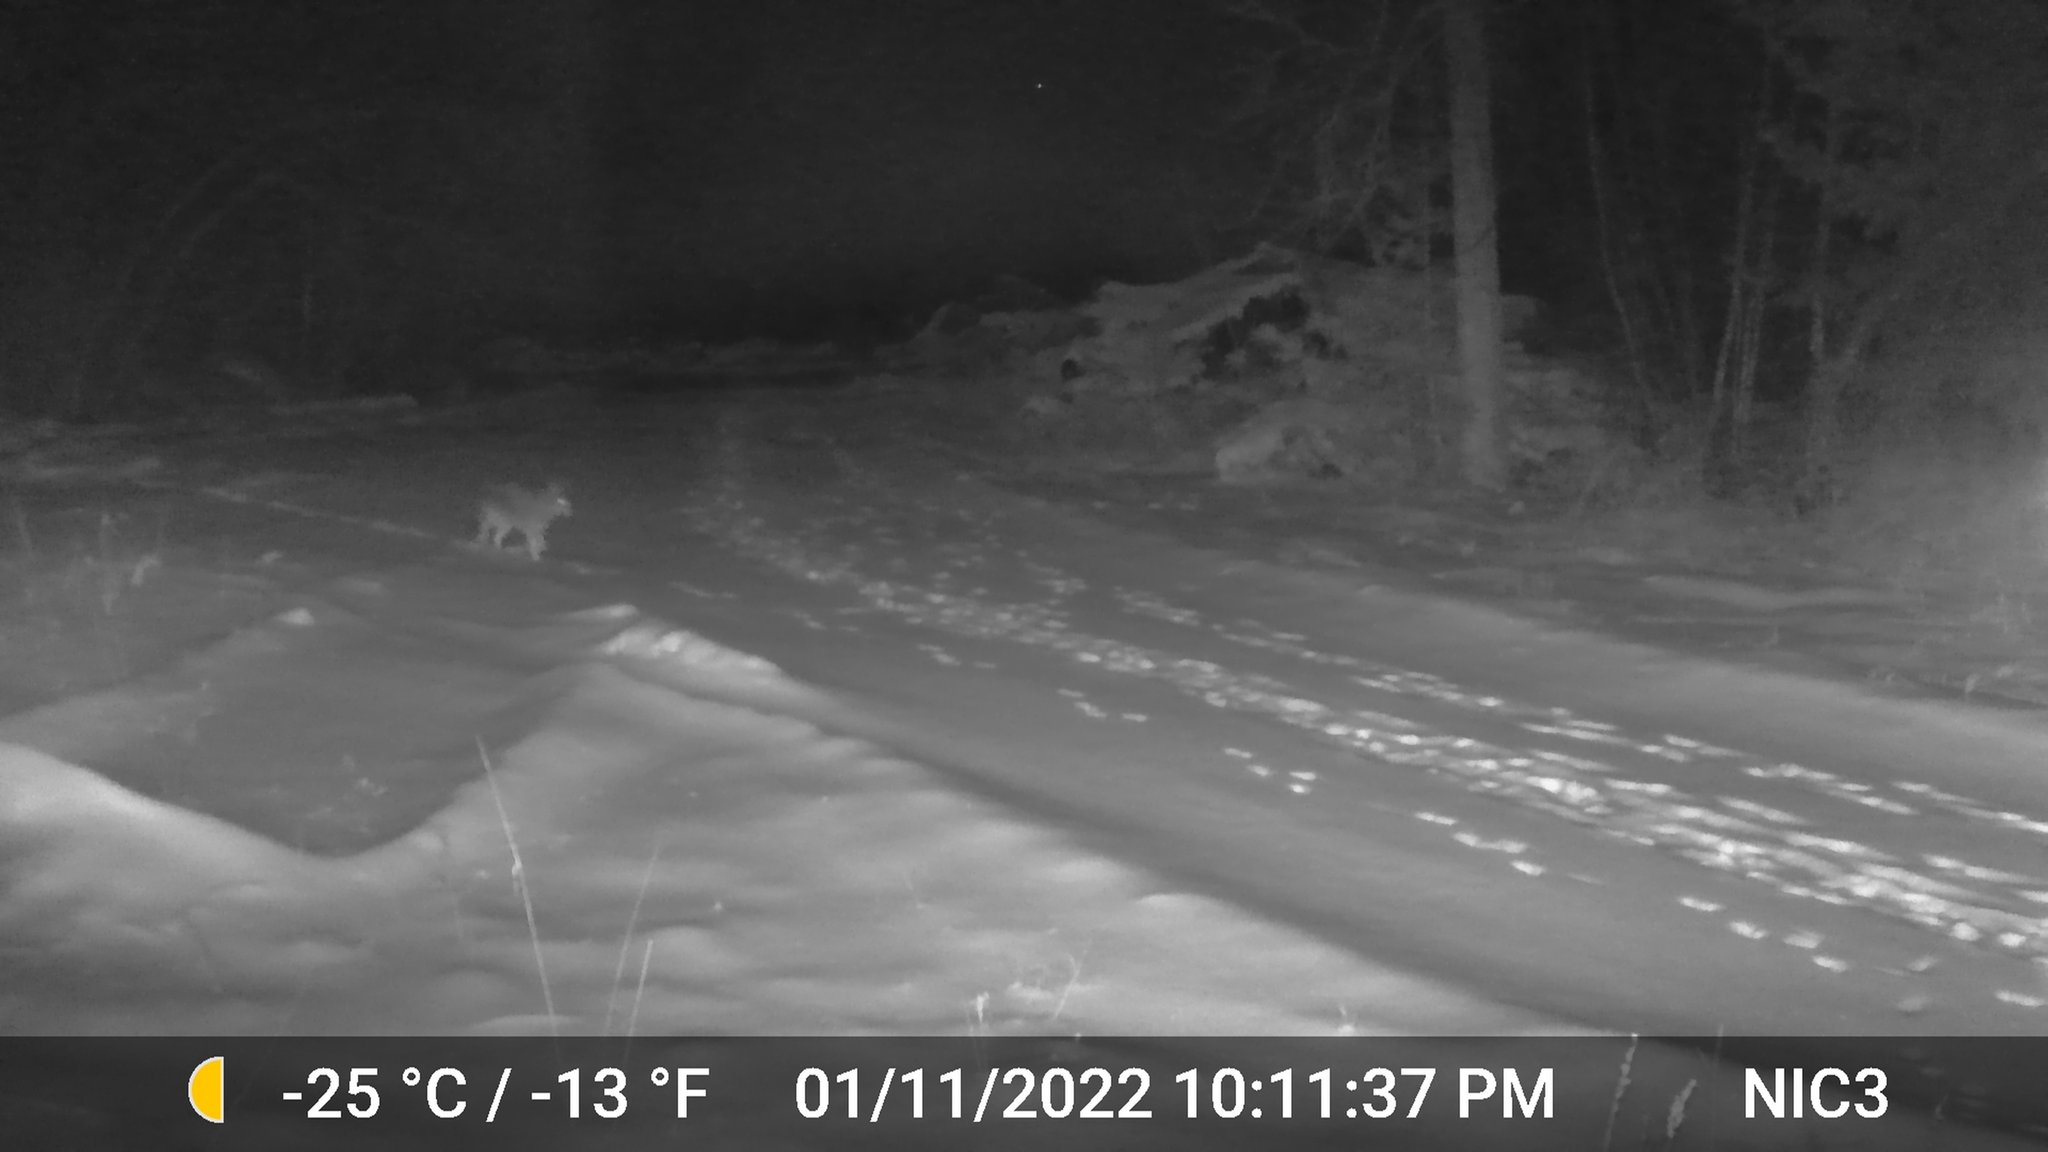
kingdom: Animalia
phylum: Chordata
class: Mammalia
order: Carnivora
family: Canidae
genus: Canis
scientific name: Canis latrans
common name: Coyote
